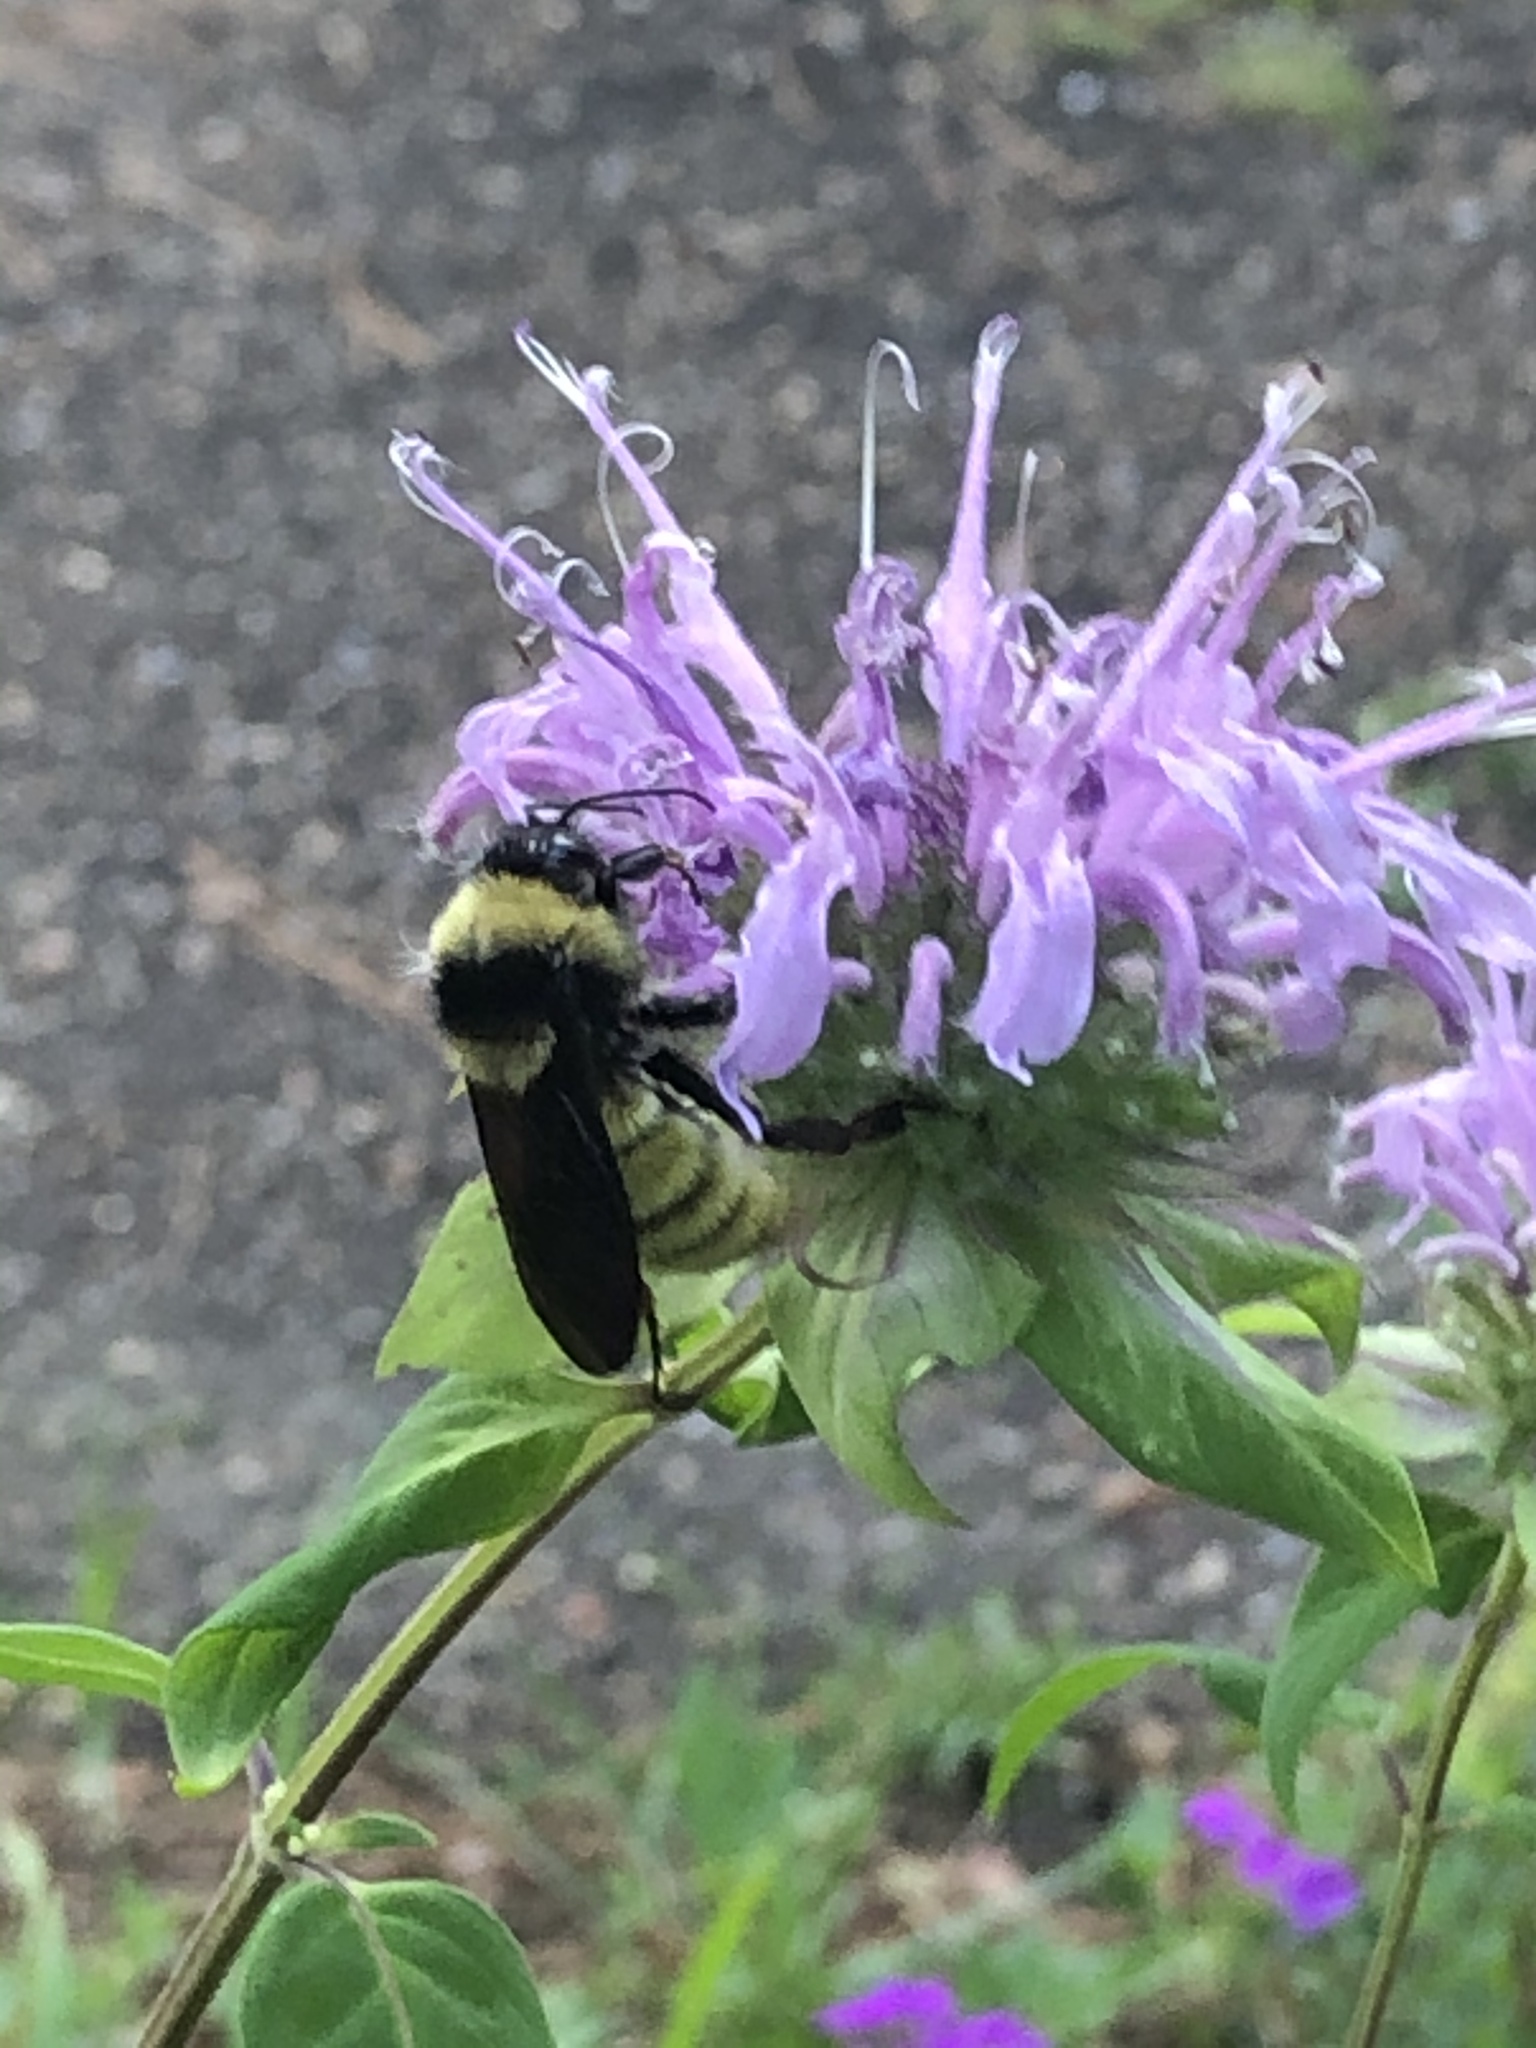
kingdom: Animalia
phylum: Arthropoda
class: Insecta
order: Hymenoptera
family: Apidae
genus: Bombus
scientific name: Bombus pensylvanicus
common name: Bumble bee
